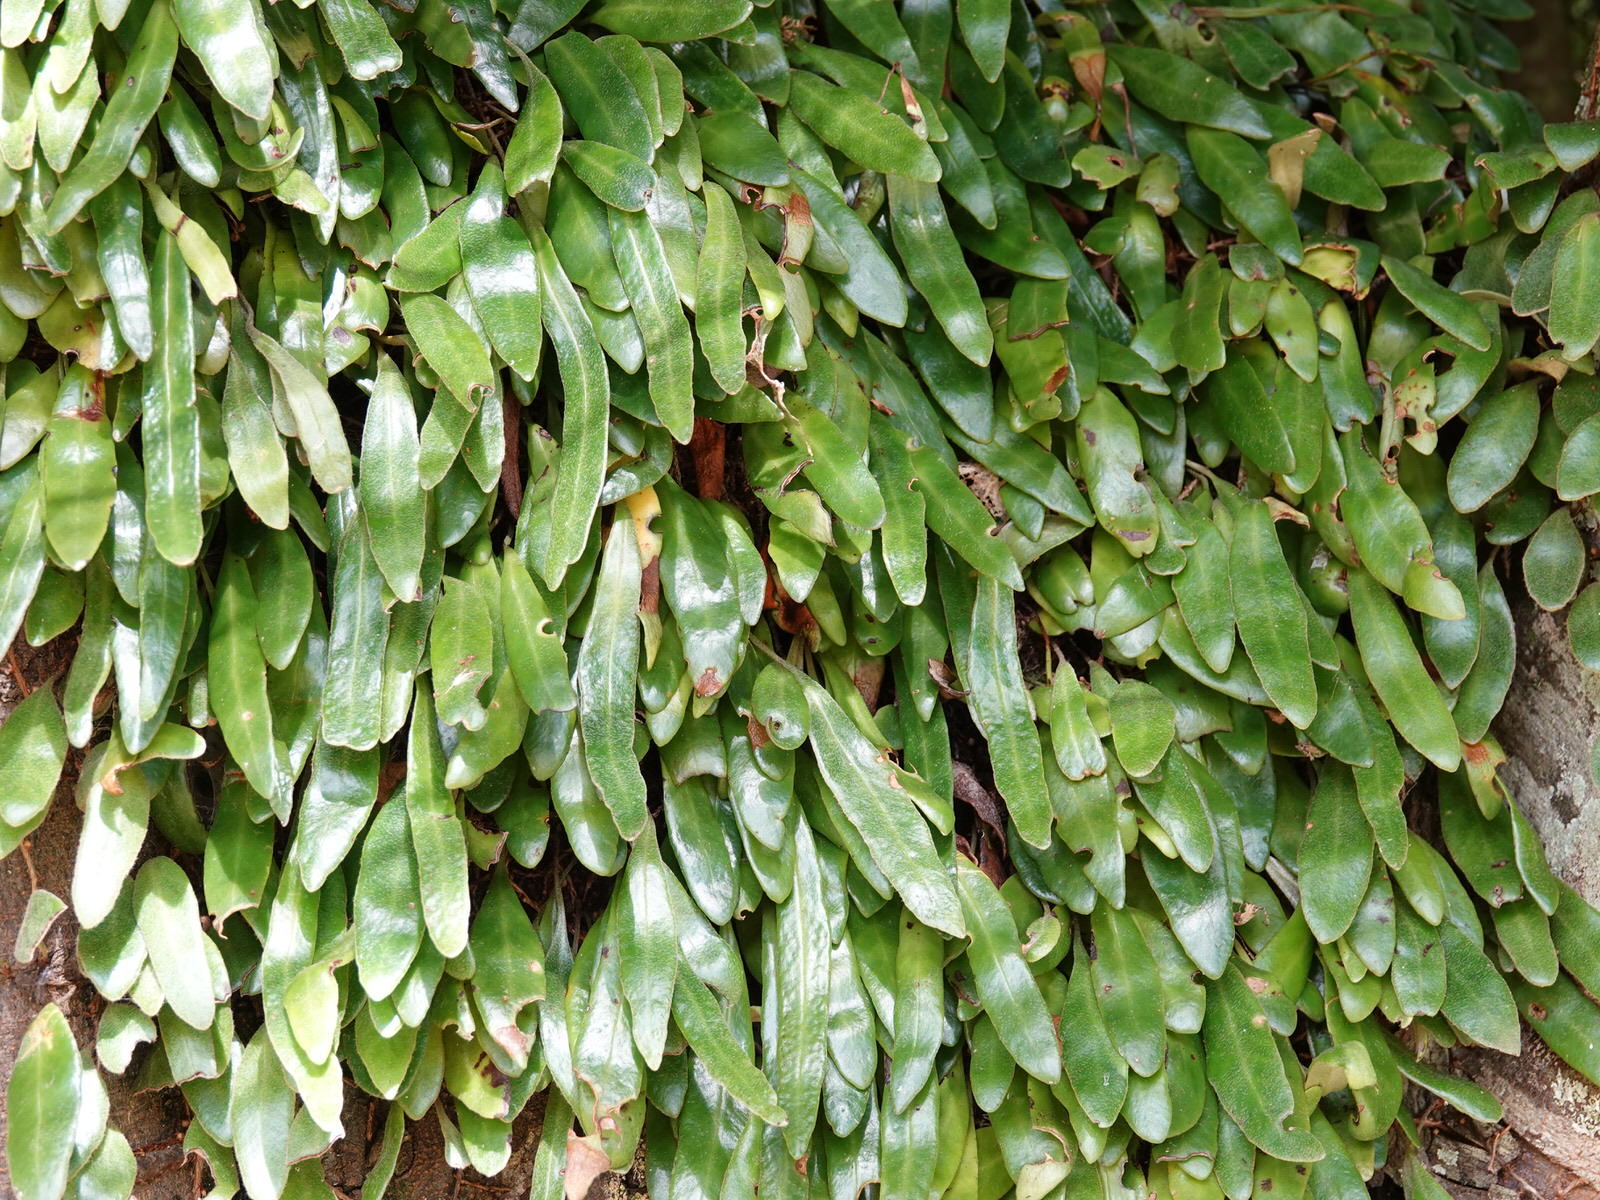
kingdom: Plantae
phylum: Tracheophyta
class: Polypodiopsida
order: Polypodiales
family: Polypodiaceae
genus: Pyrrosia
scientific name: Pyrrosia eleagnifolia
